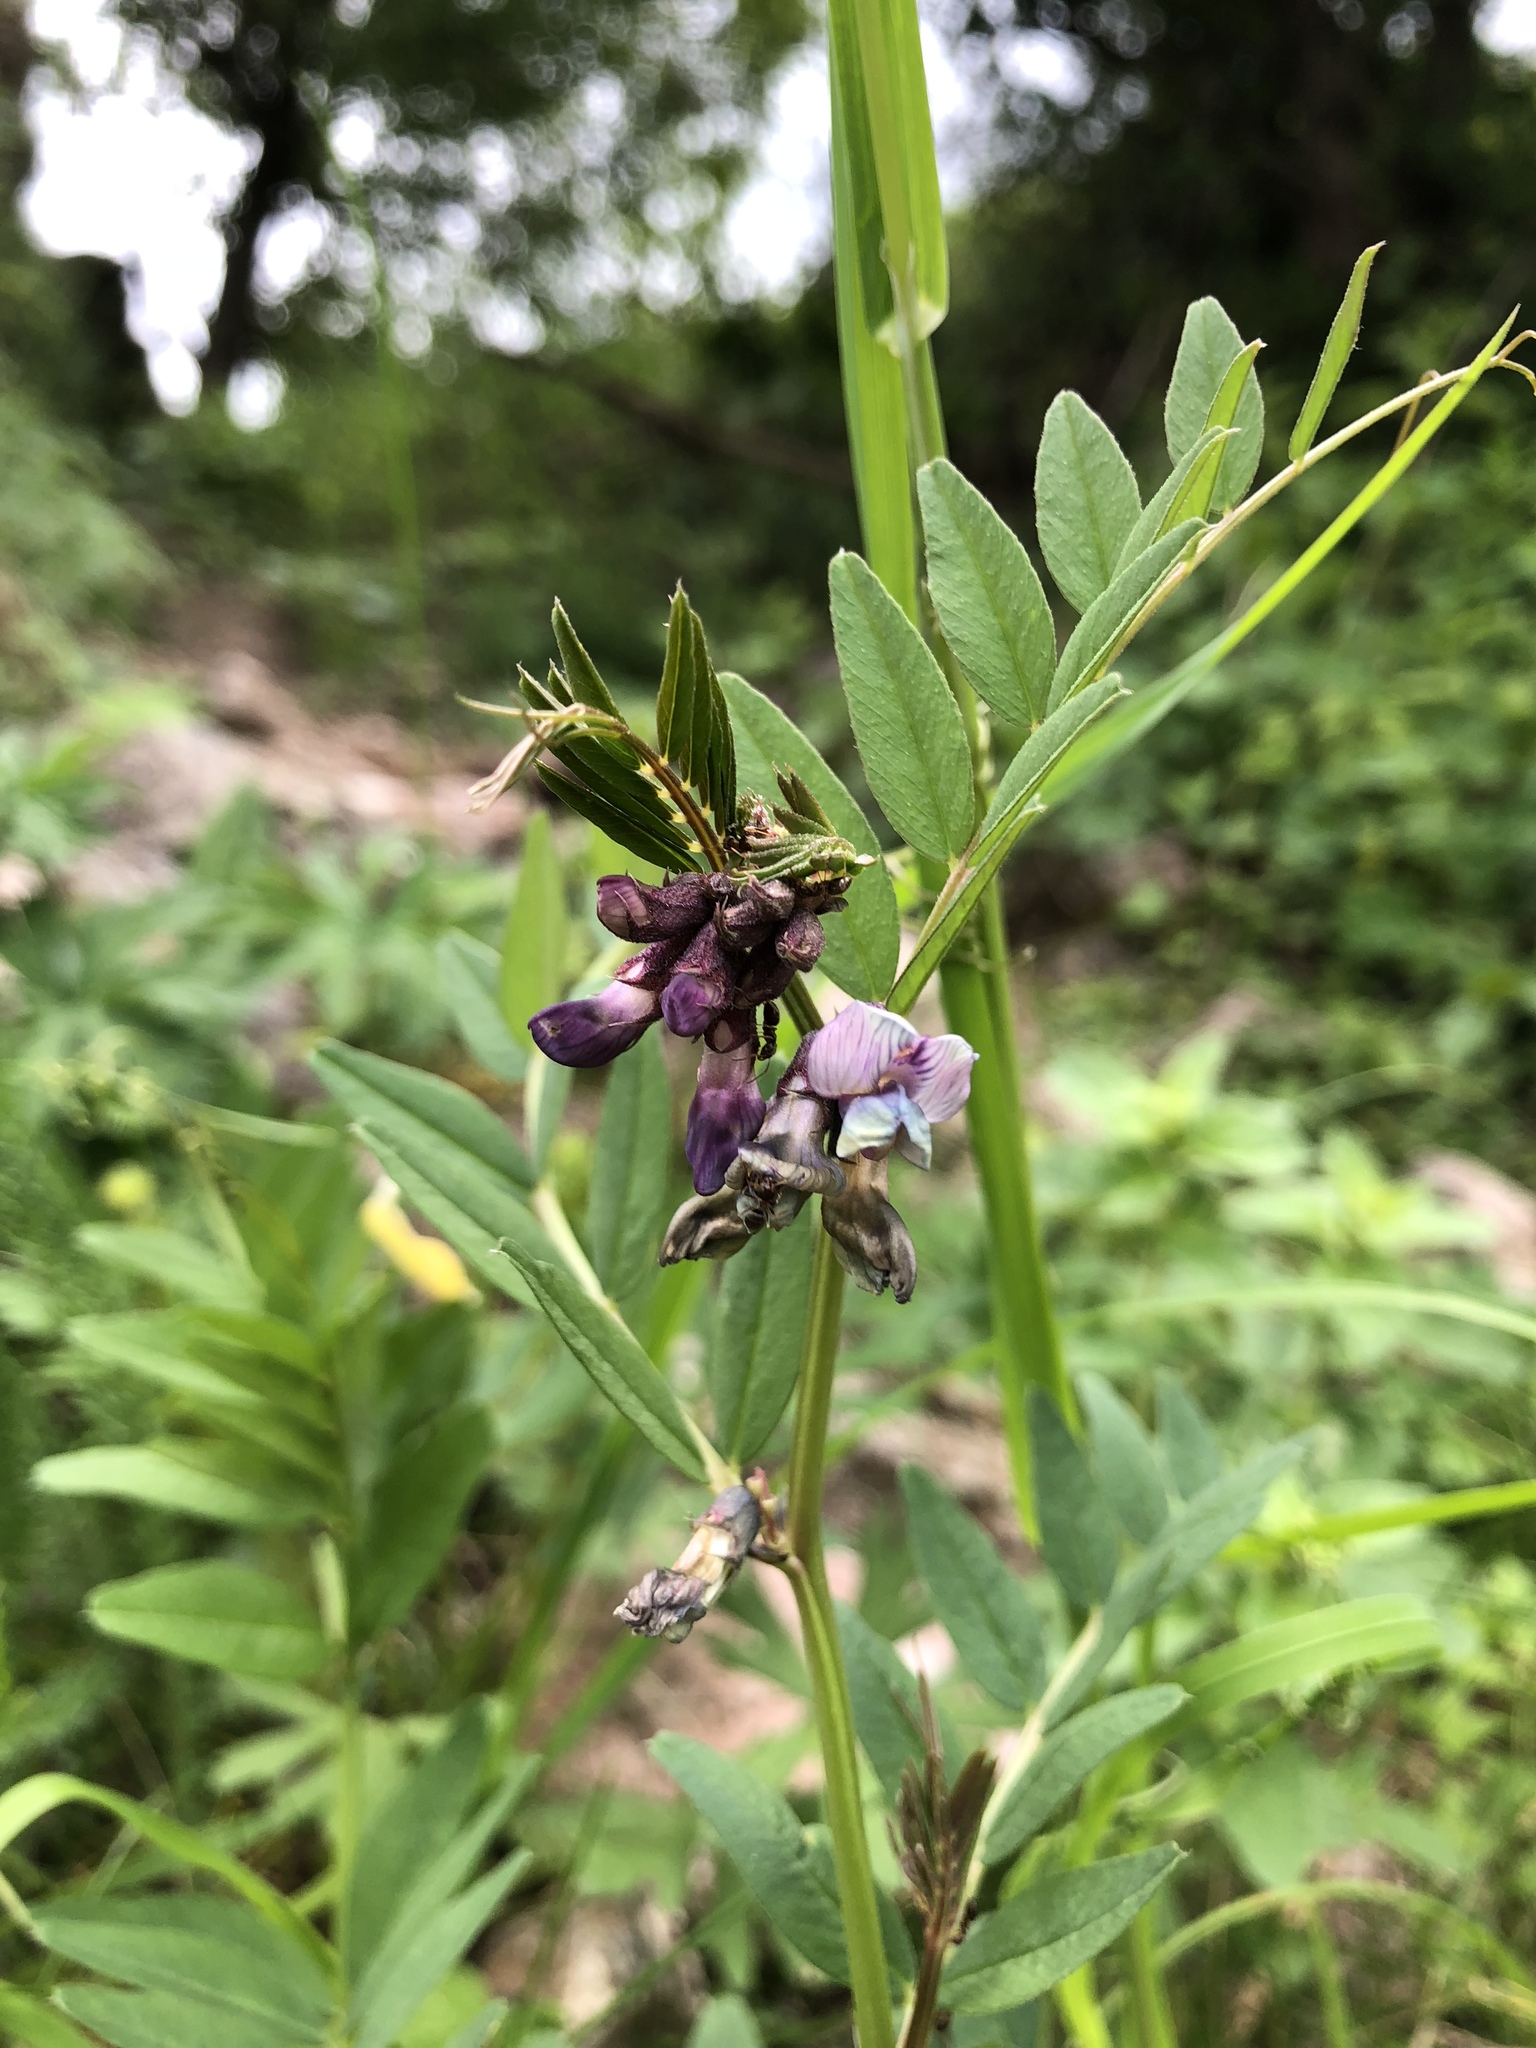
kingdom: Plantae
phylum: Tracheophyta
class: Magnoliopsida
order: Fabales
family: Fabaceae
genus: Vicia
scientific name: Vicia sepium
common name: Bush vetch
